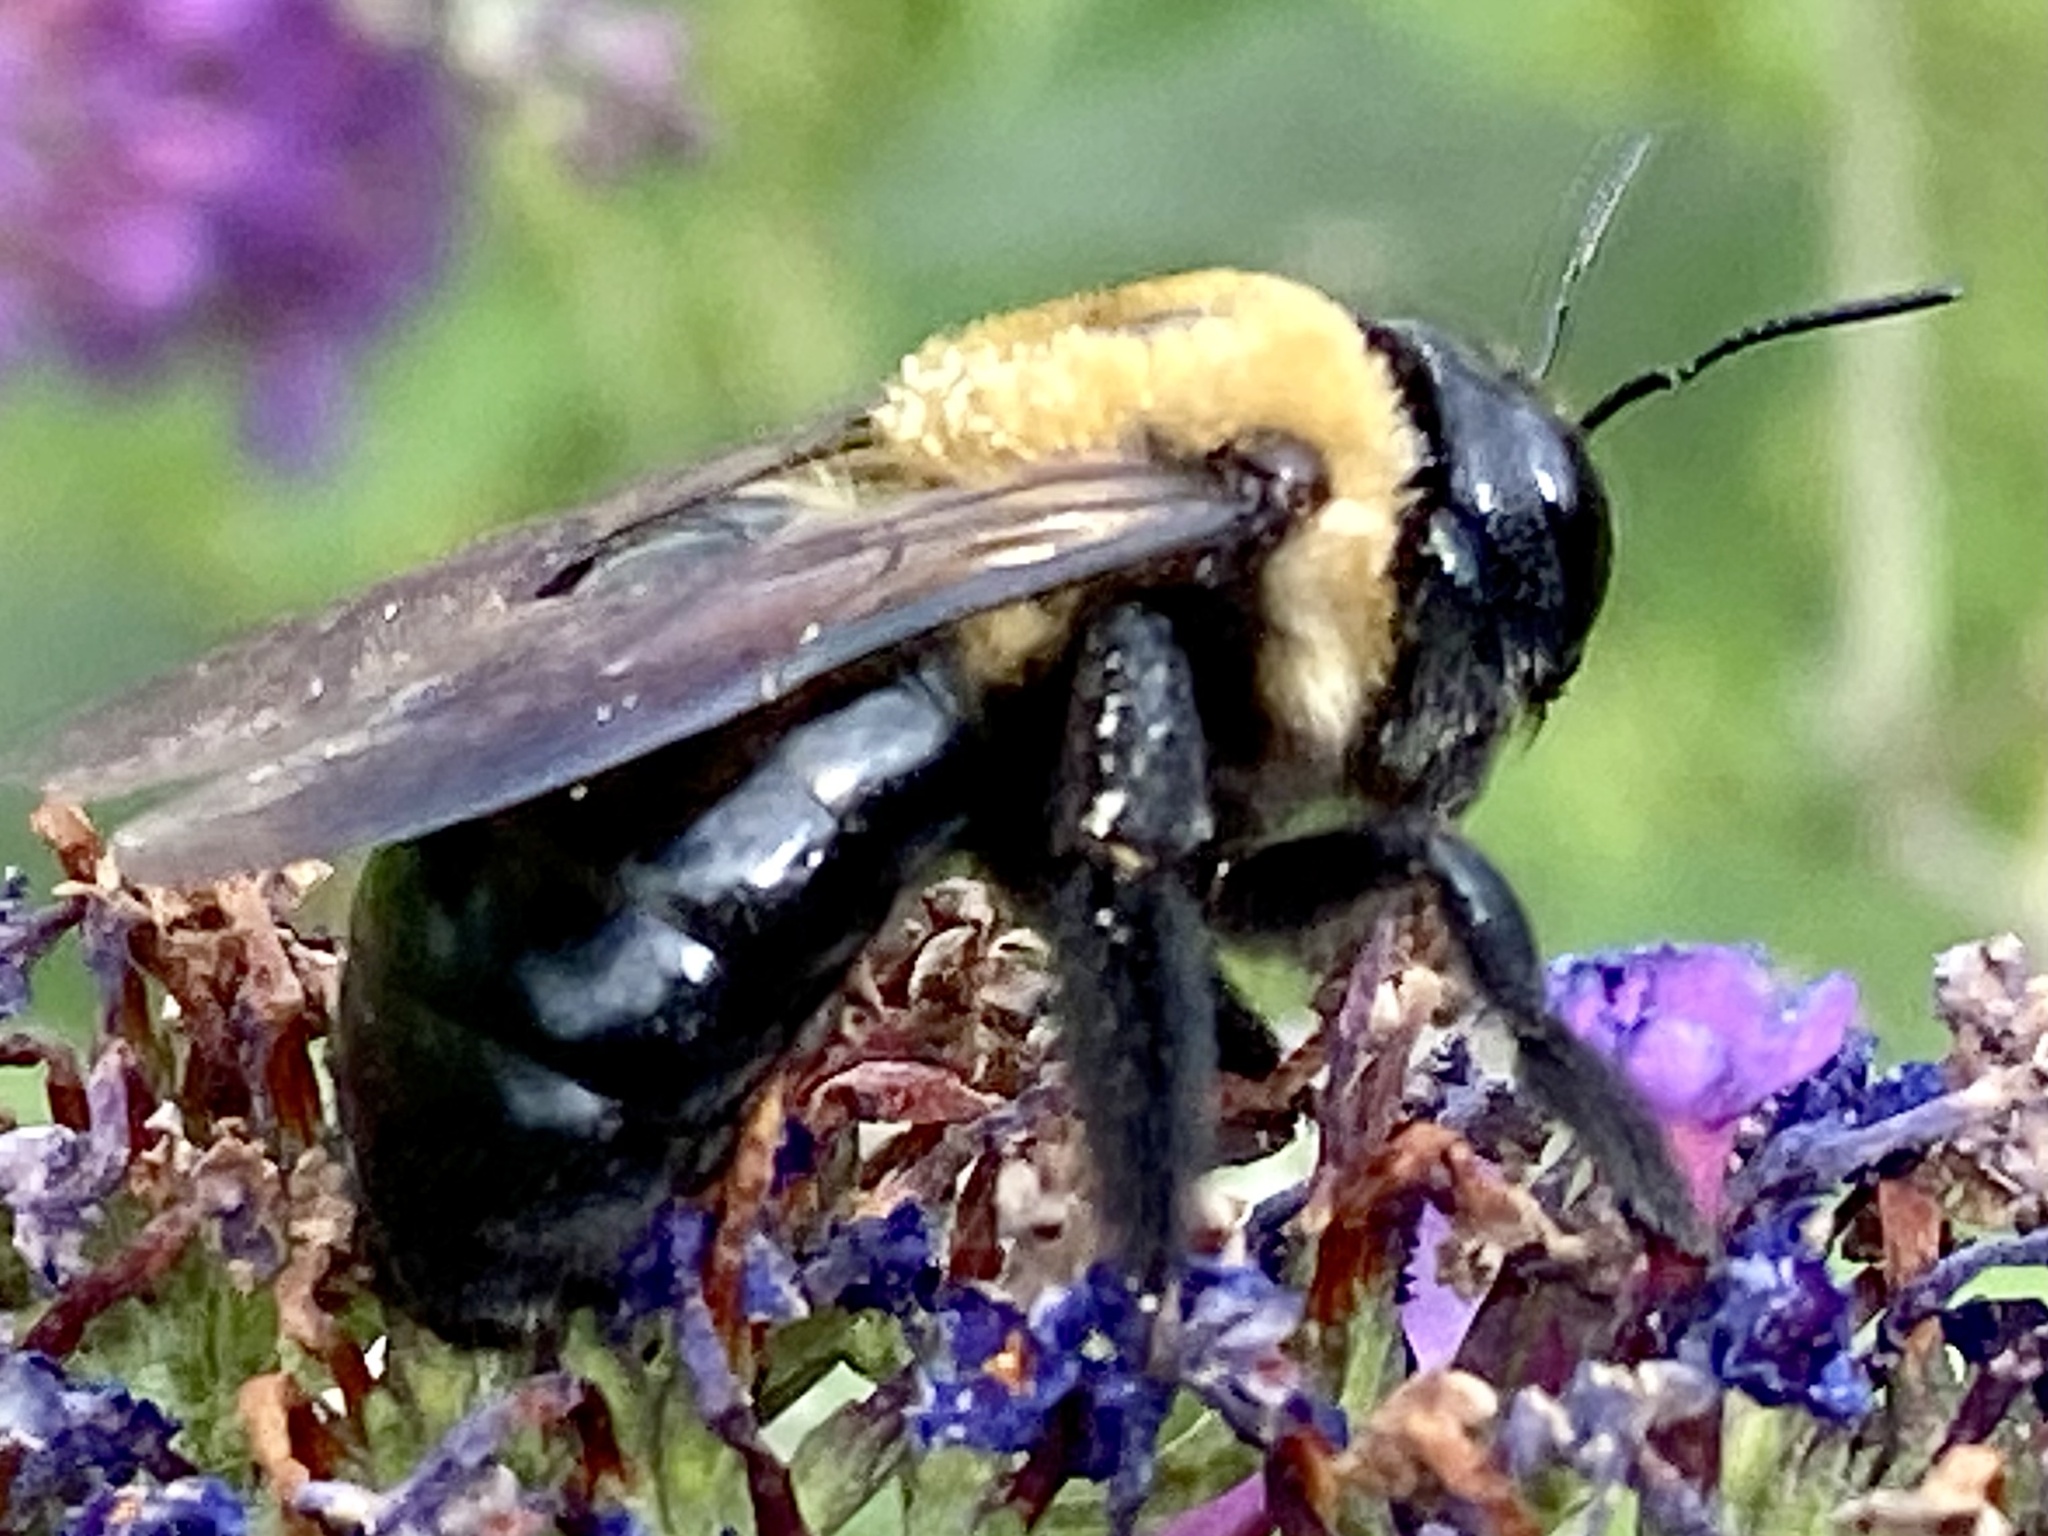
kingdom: Animalia
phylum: Arthropoda
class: Insecta
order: Hymenoptera
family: Apidae
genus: Xylocopa
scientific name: Xylocopa virginica
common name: Carpenter bee
